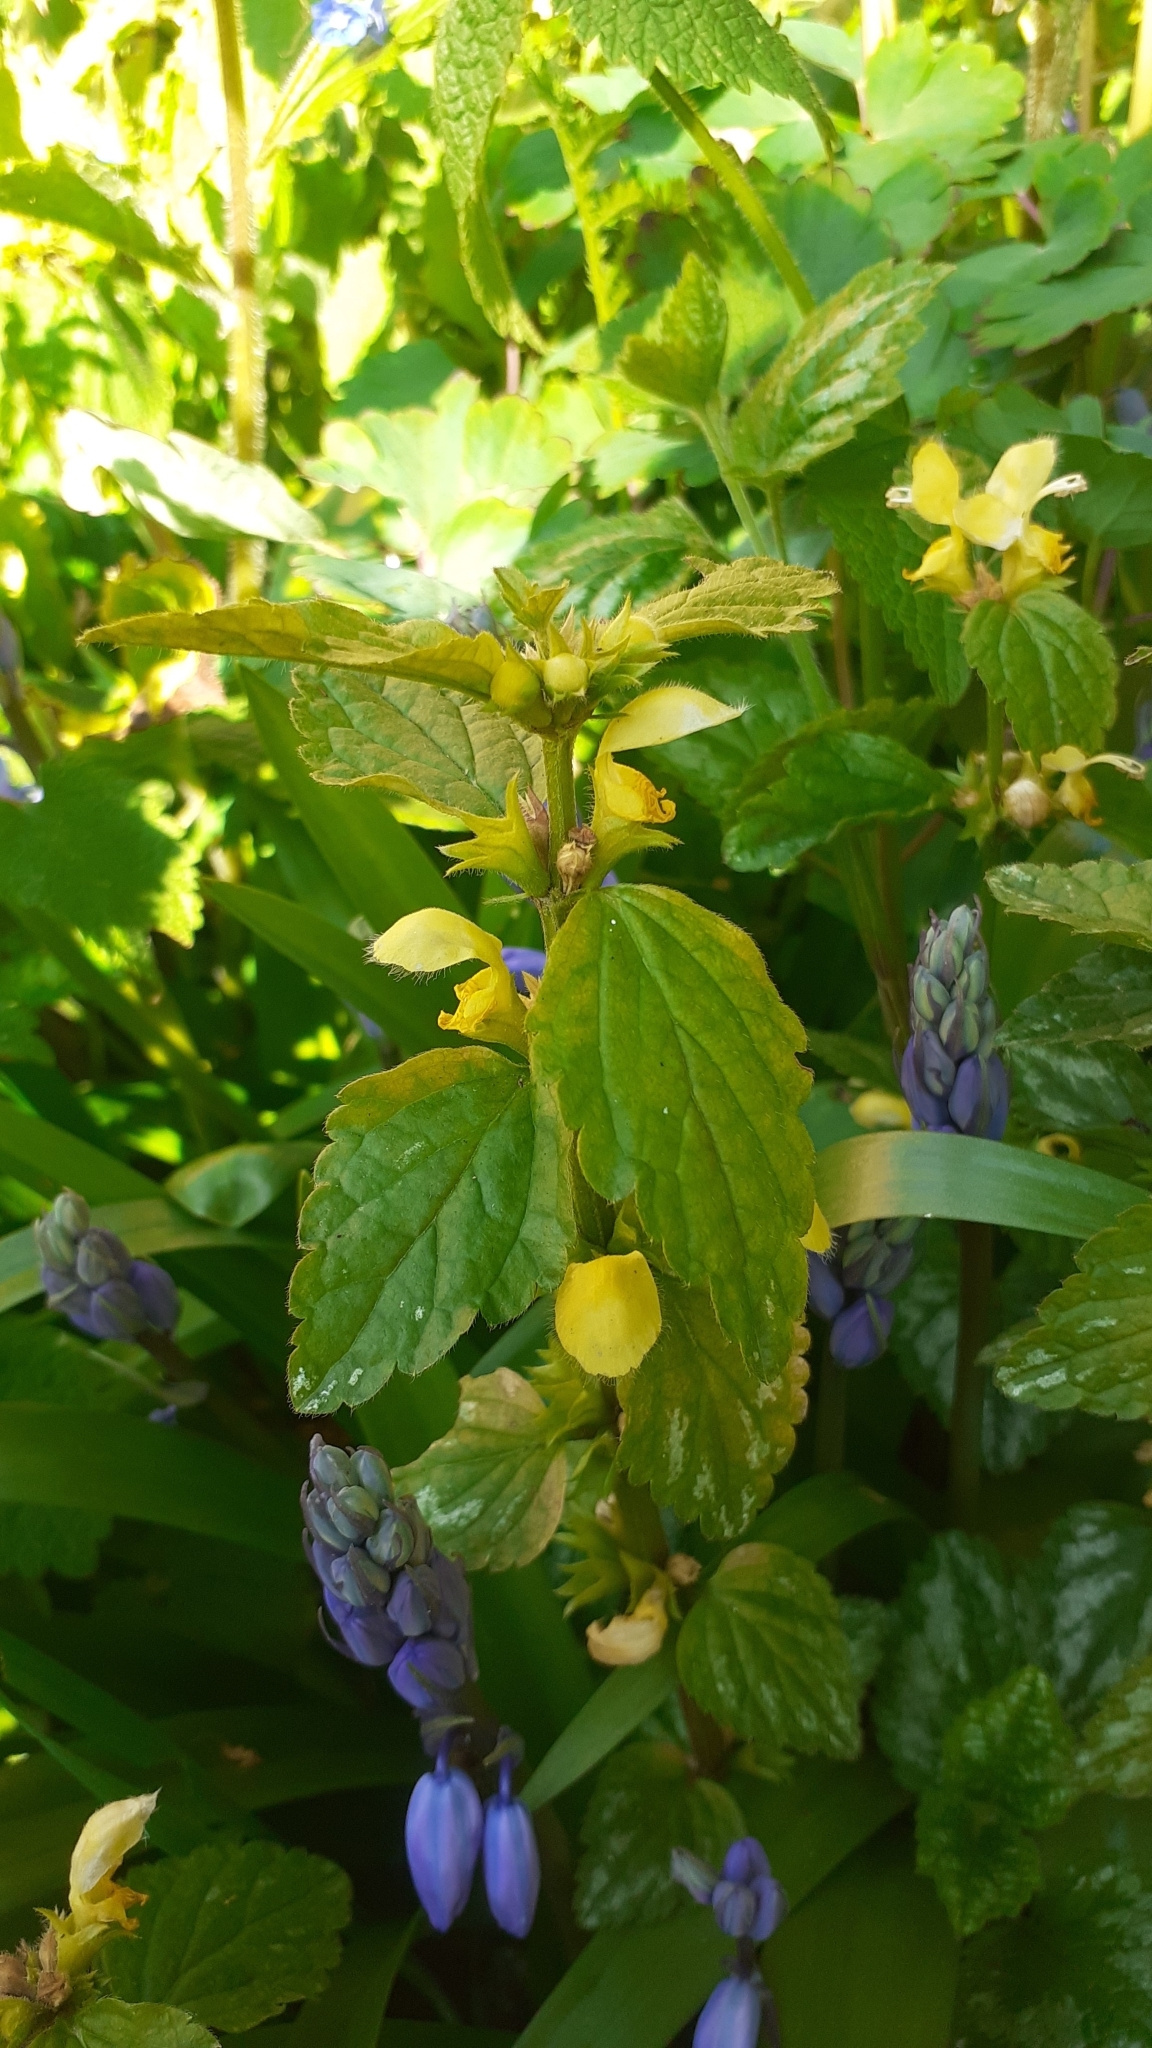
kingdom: Plantae
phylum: Tracheophyta
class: Magnoliopsida
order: Lamiales
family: Lamiaceae
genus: Lamium
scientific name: Lamium galeobdolon
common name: Yellow archangel
